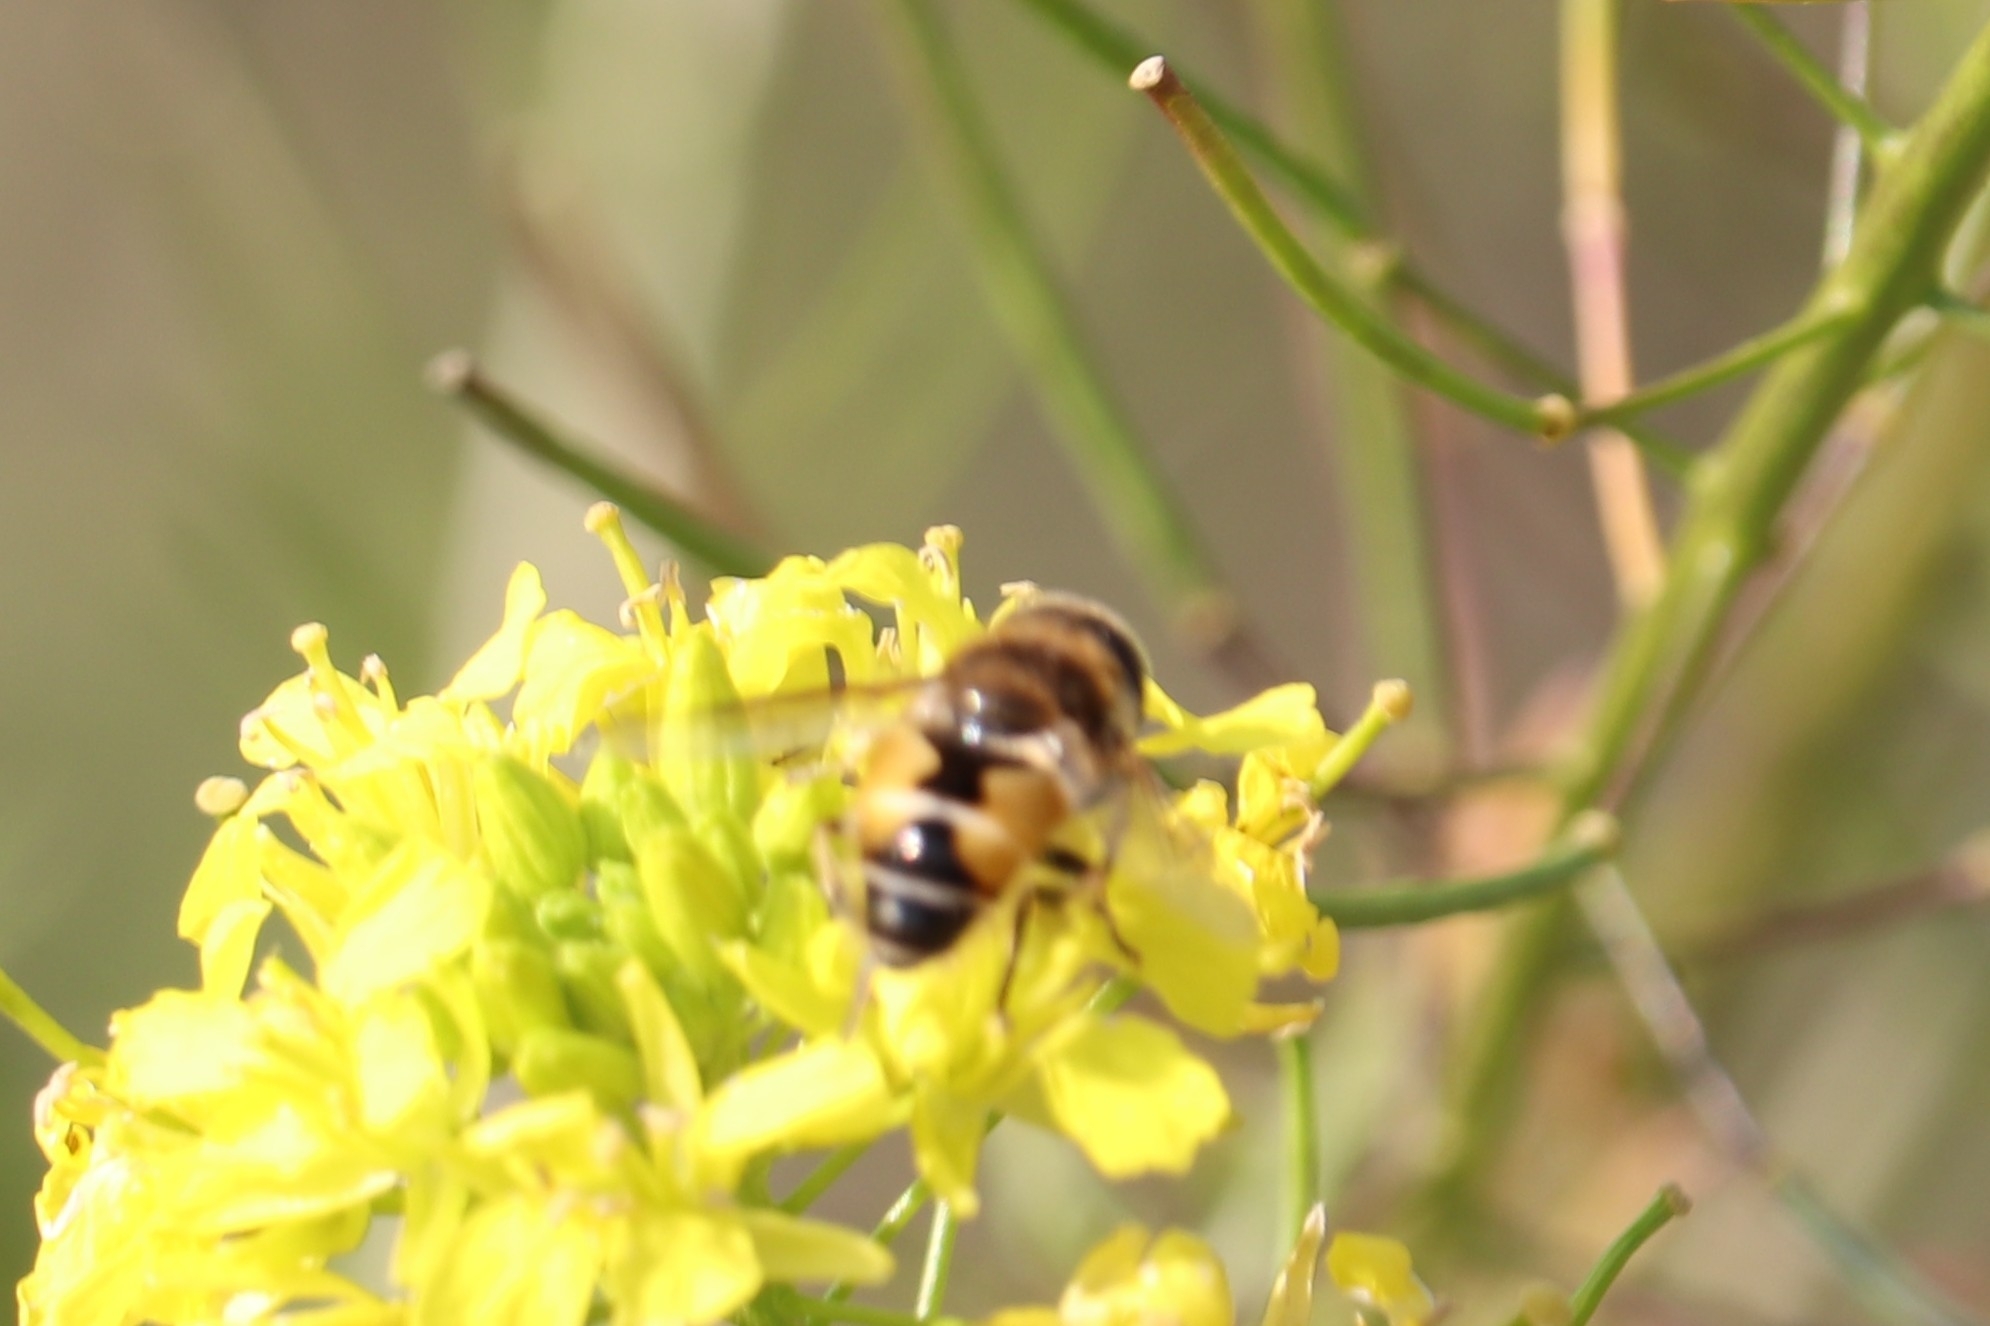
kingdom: Animalia
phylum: Arthropoda
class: Insecta
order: Diptera
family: Syrphidae
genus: Eristalis
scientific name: Eristalis arbustorum
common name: Hover fly
